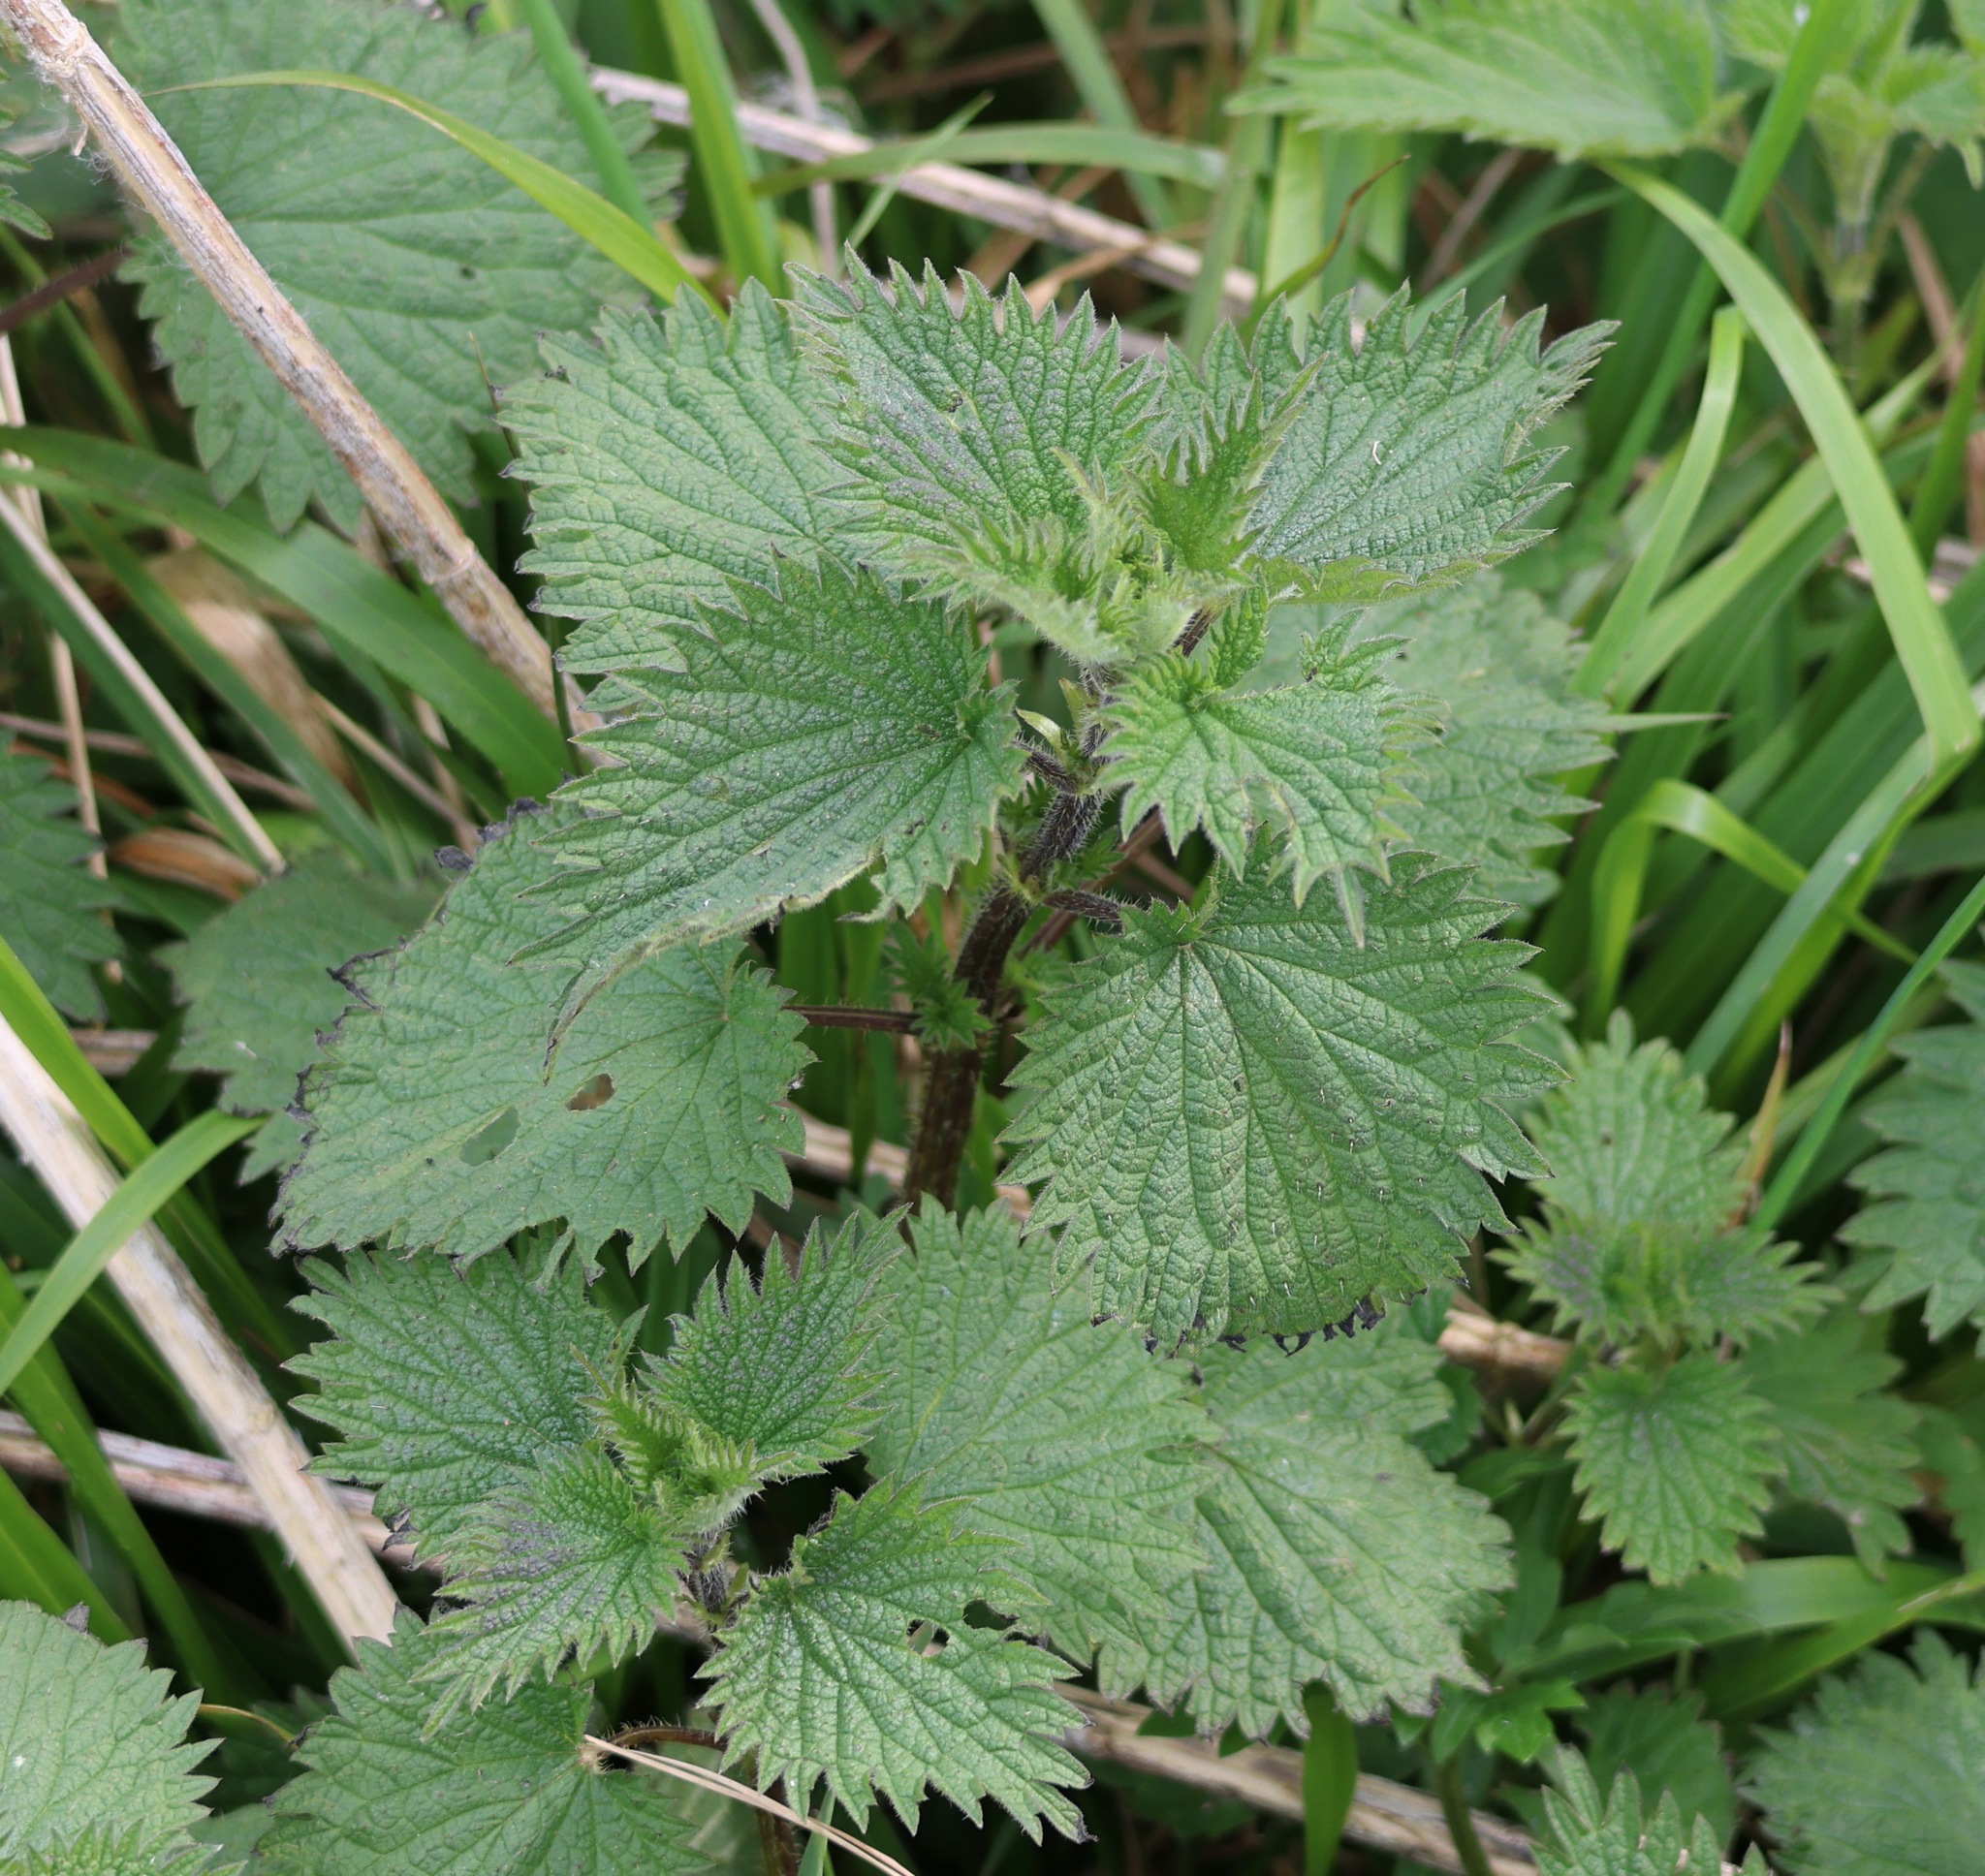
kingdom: Plantae
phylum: Tracheophyta
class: Magnoliopsida
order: Rosales
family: Urticaceae
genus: Urtica
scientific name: Urtica dioica
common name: Common nettle
